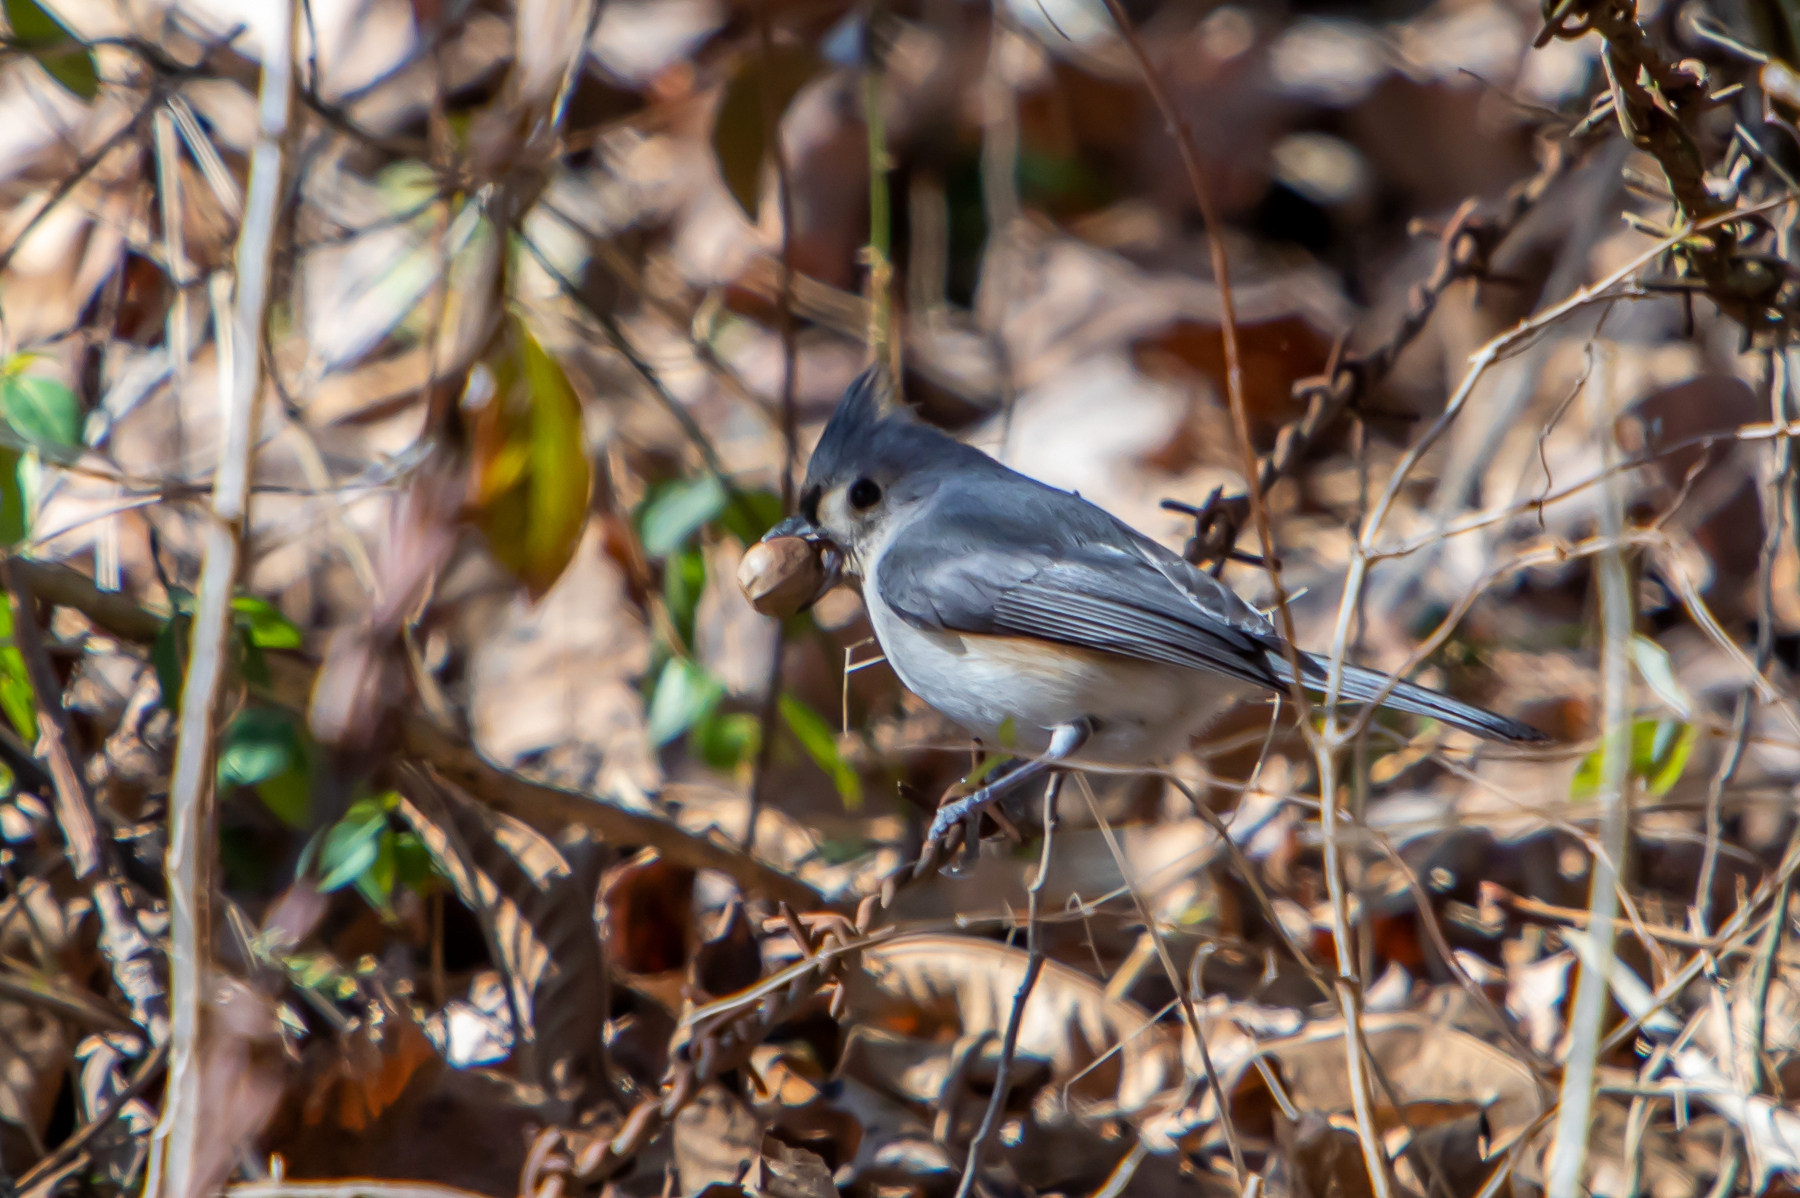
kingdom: Animalia
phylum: Chordata
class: Aves
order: Passeriformes
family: Paridae
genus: Baeolophus
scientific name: Baeolophus bicolor
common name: Tufted titmouse
